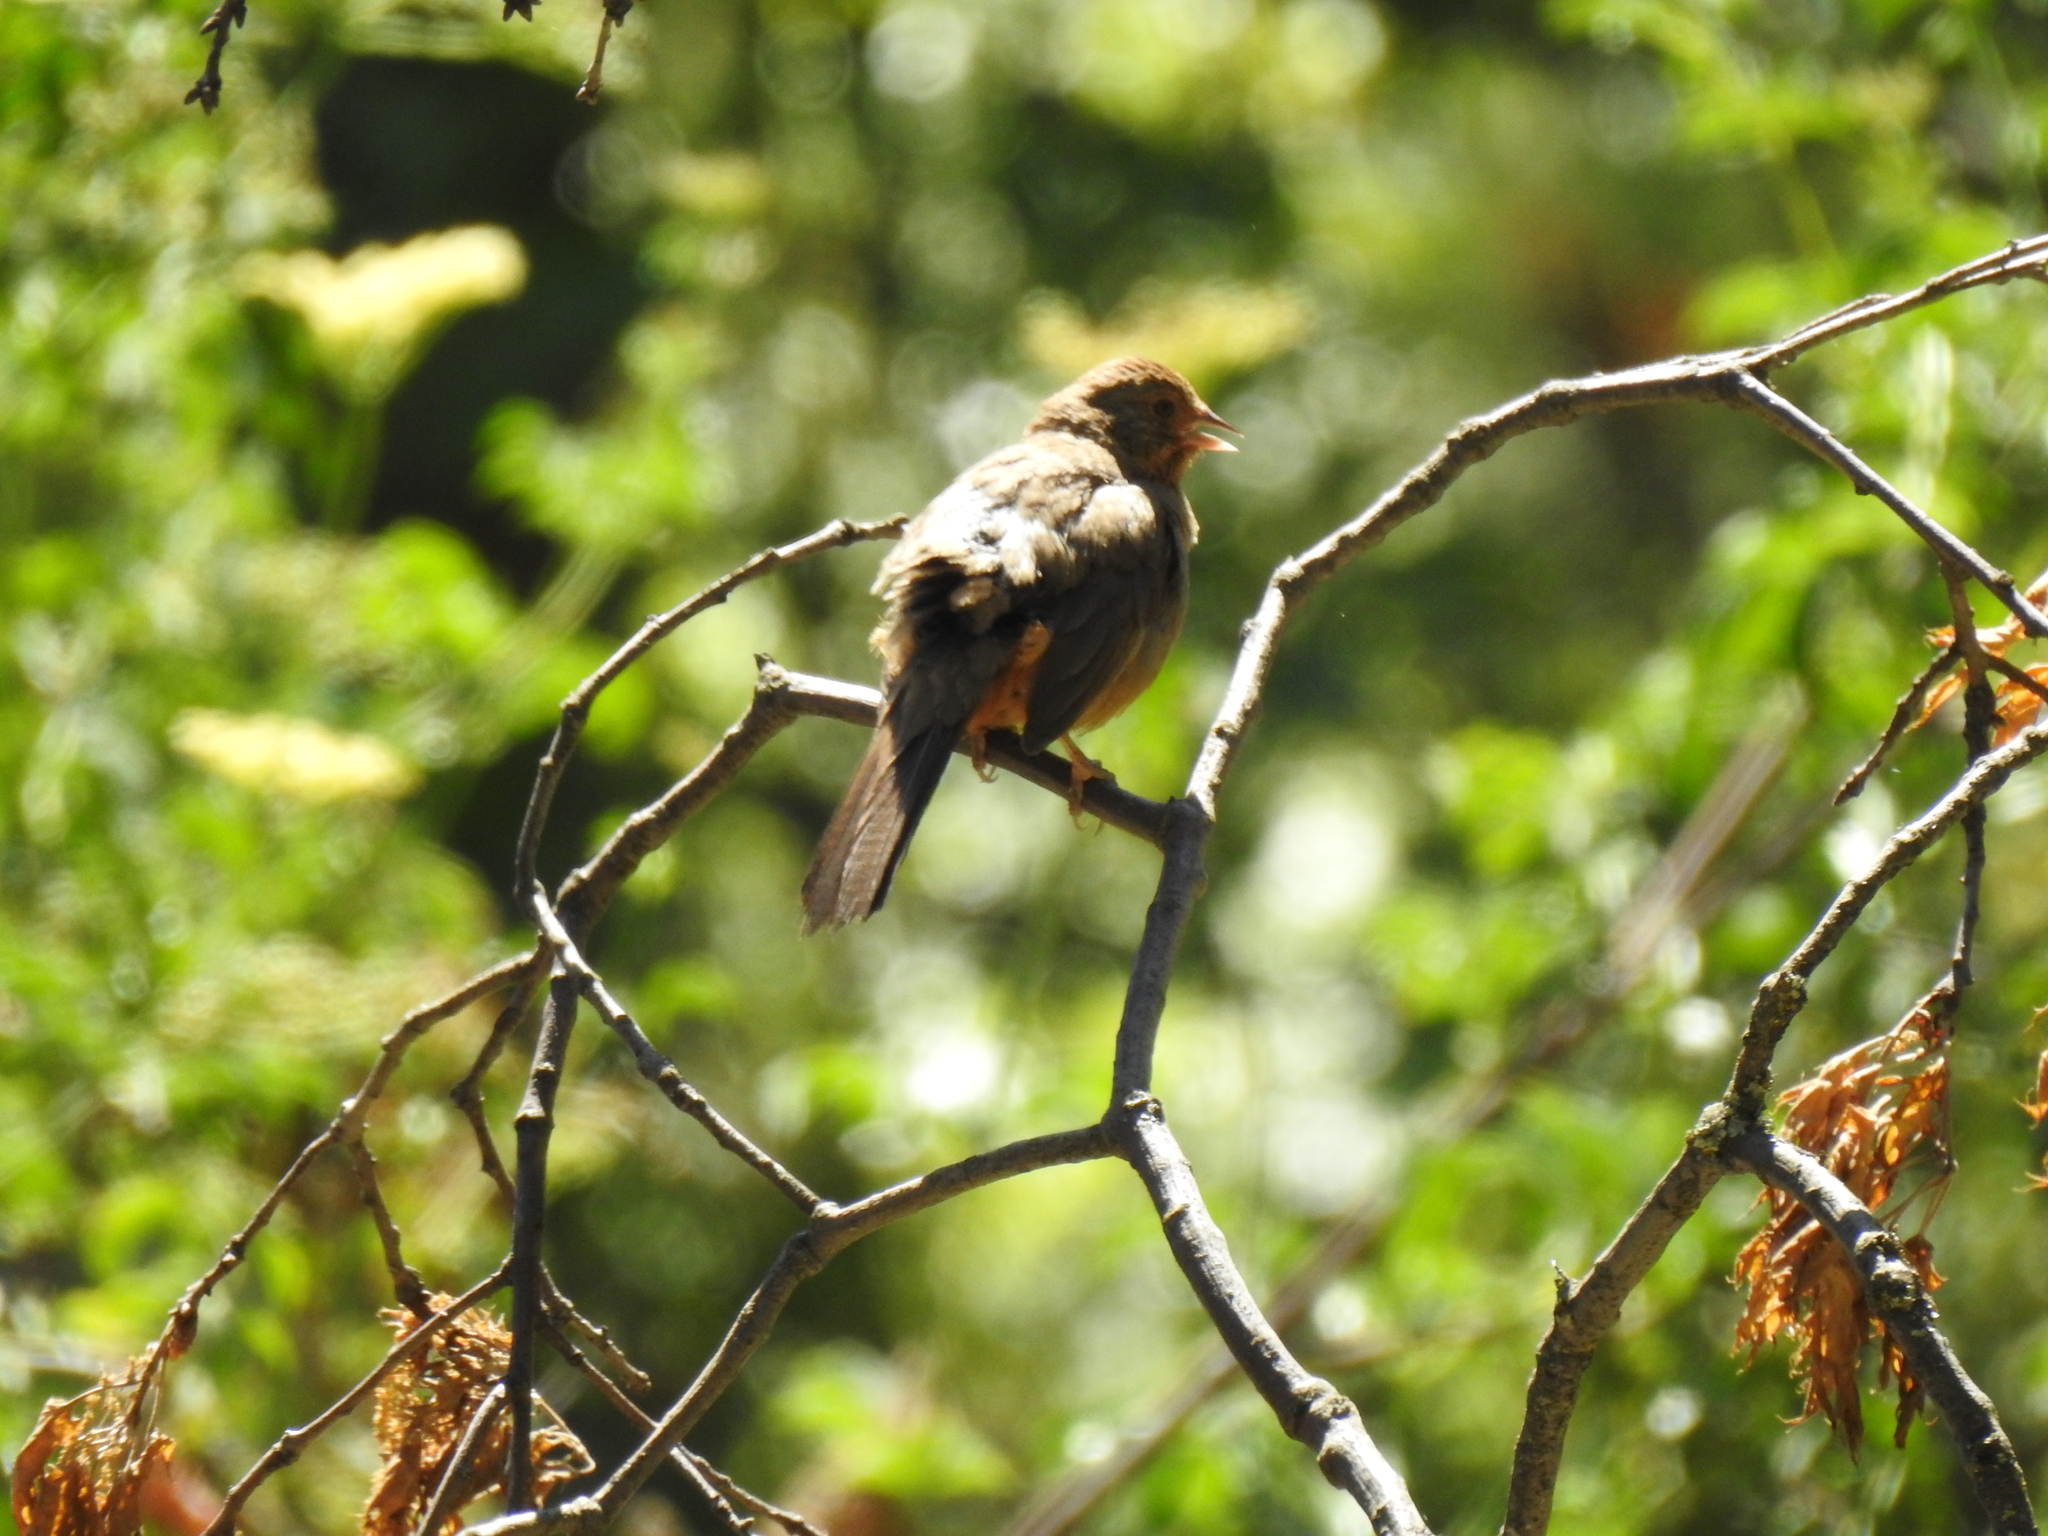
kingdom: Animalia
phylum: Chordata
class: Aves
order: Passeriformes
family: Passerellidae
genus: Melozone
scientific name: Melozone crissalis
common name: California towhee
